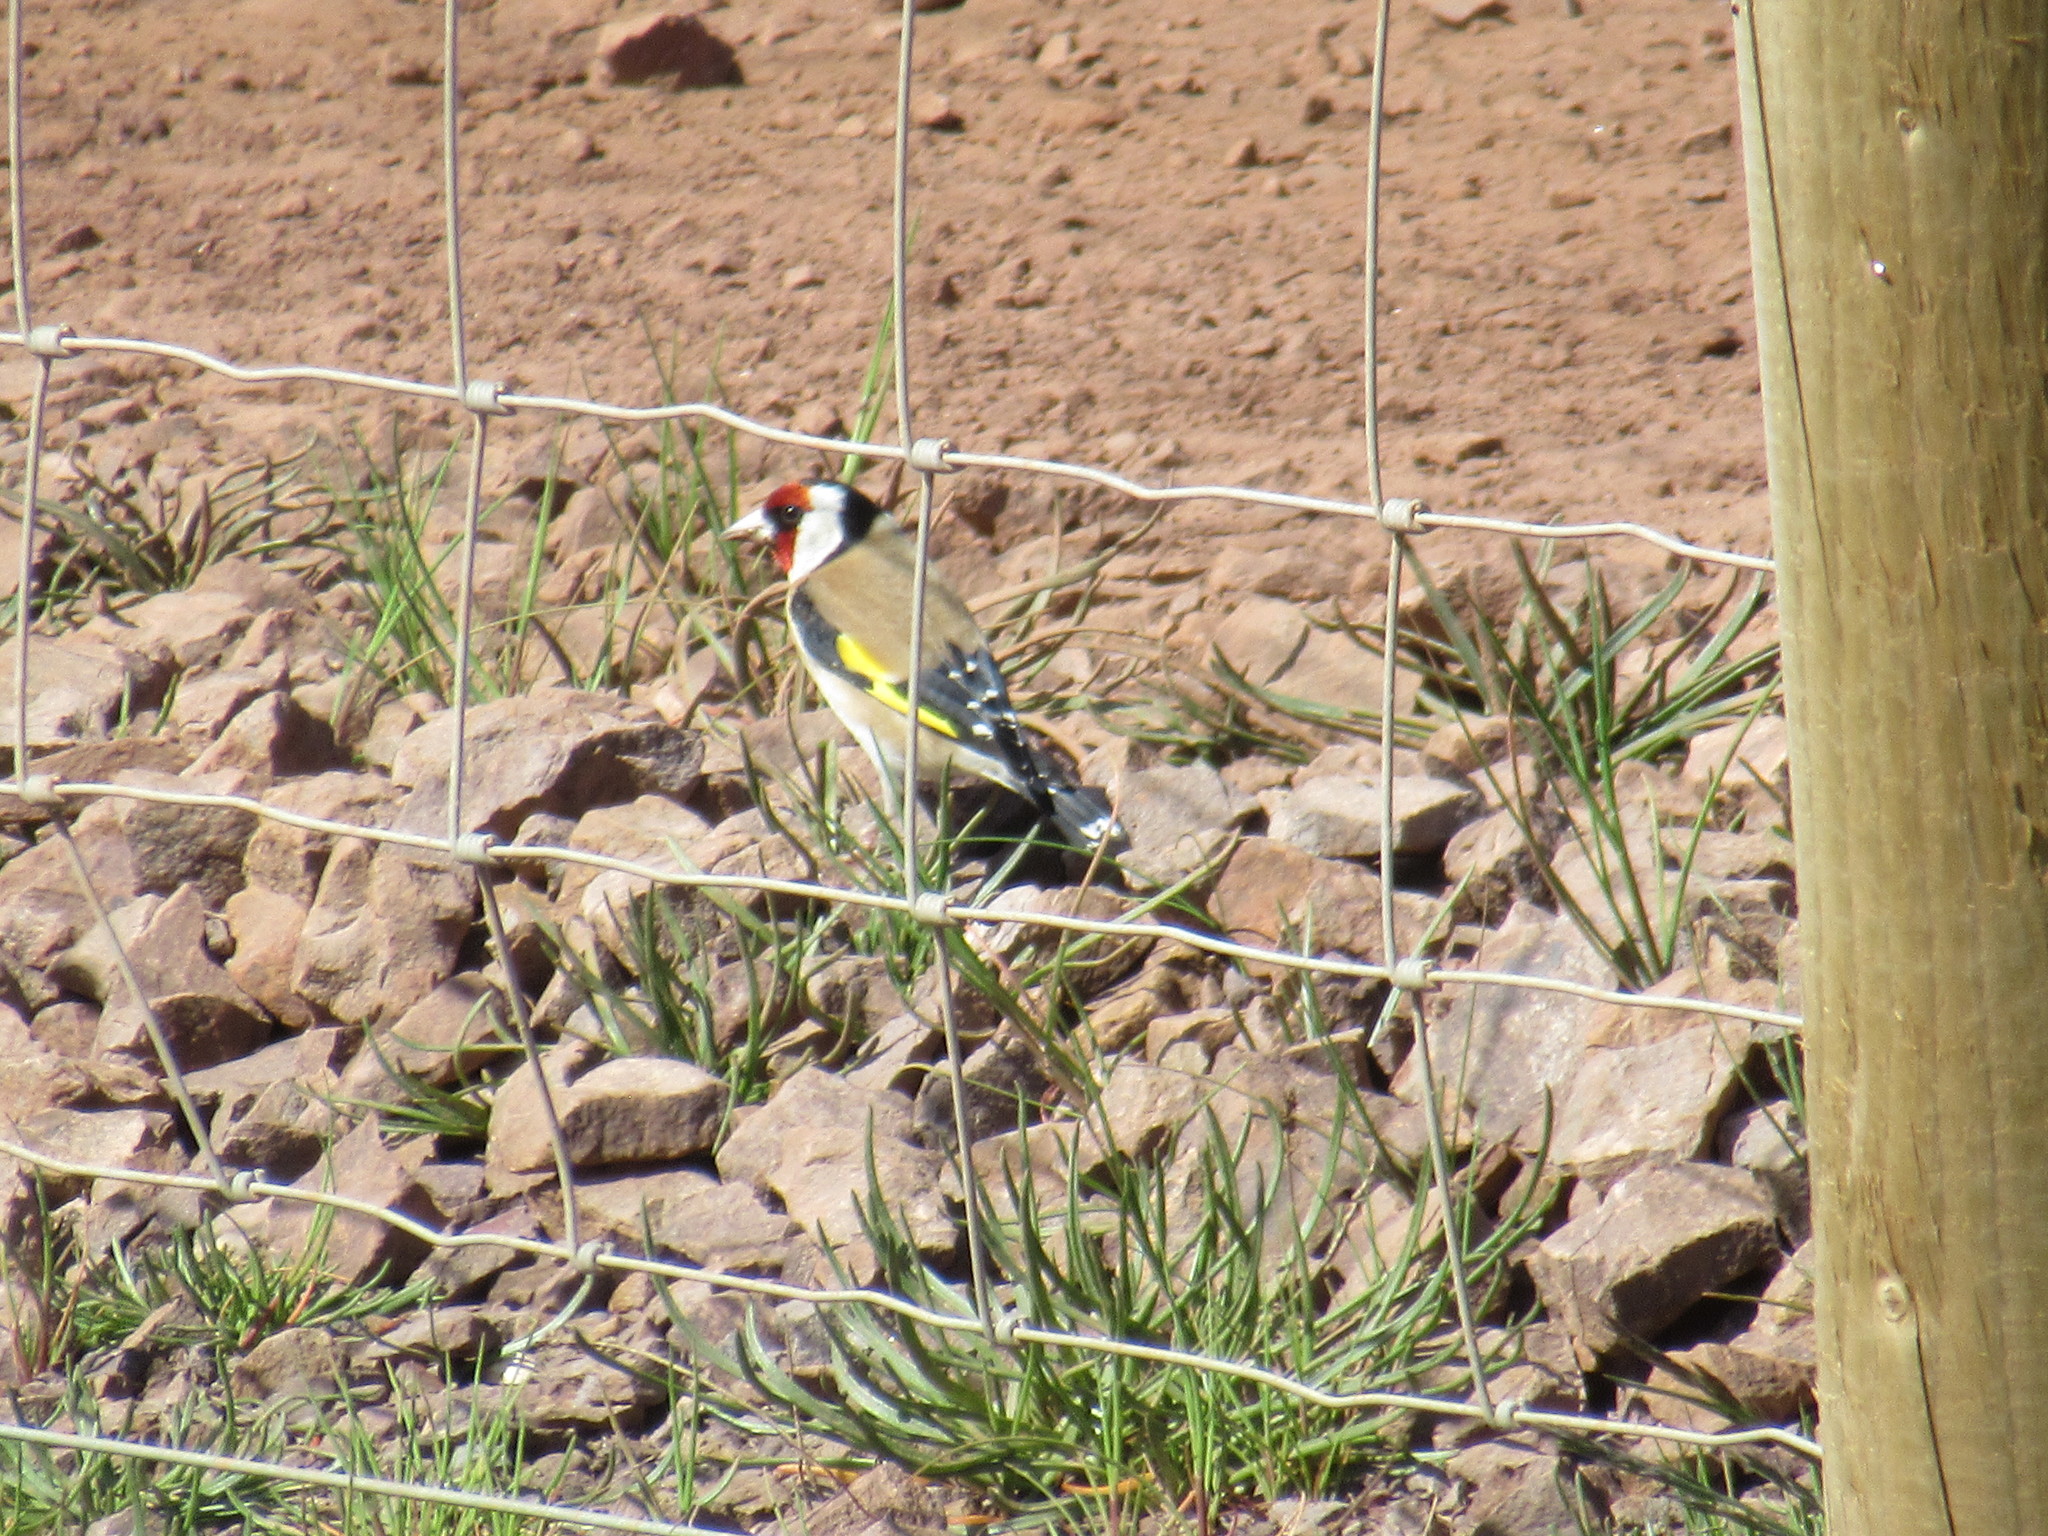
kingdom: Animalia
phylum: Chordata
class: Aves
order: Passeriformes
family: Fringillidae
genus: Carduelis
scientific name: Carduelis carduelis
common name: European goldfinch
